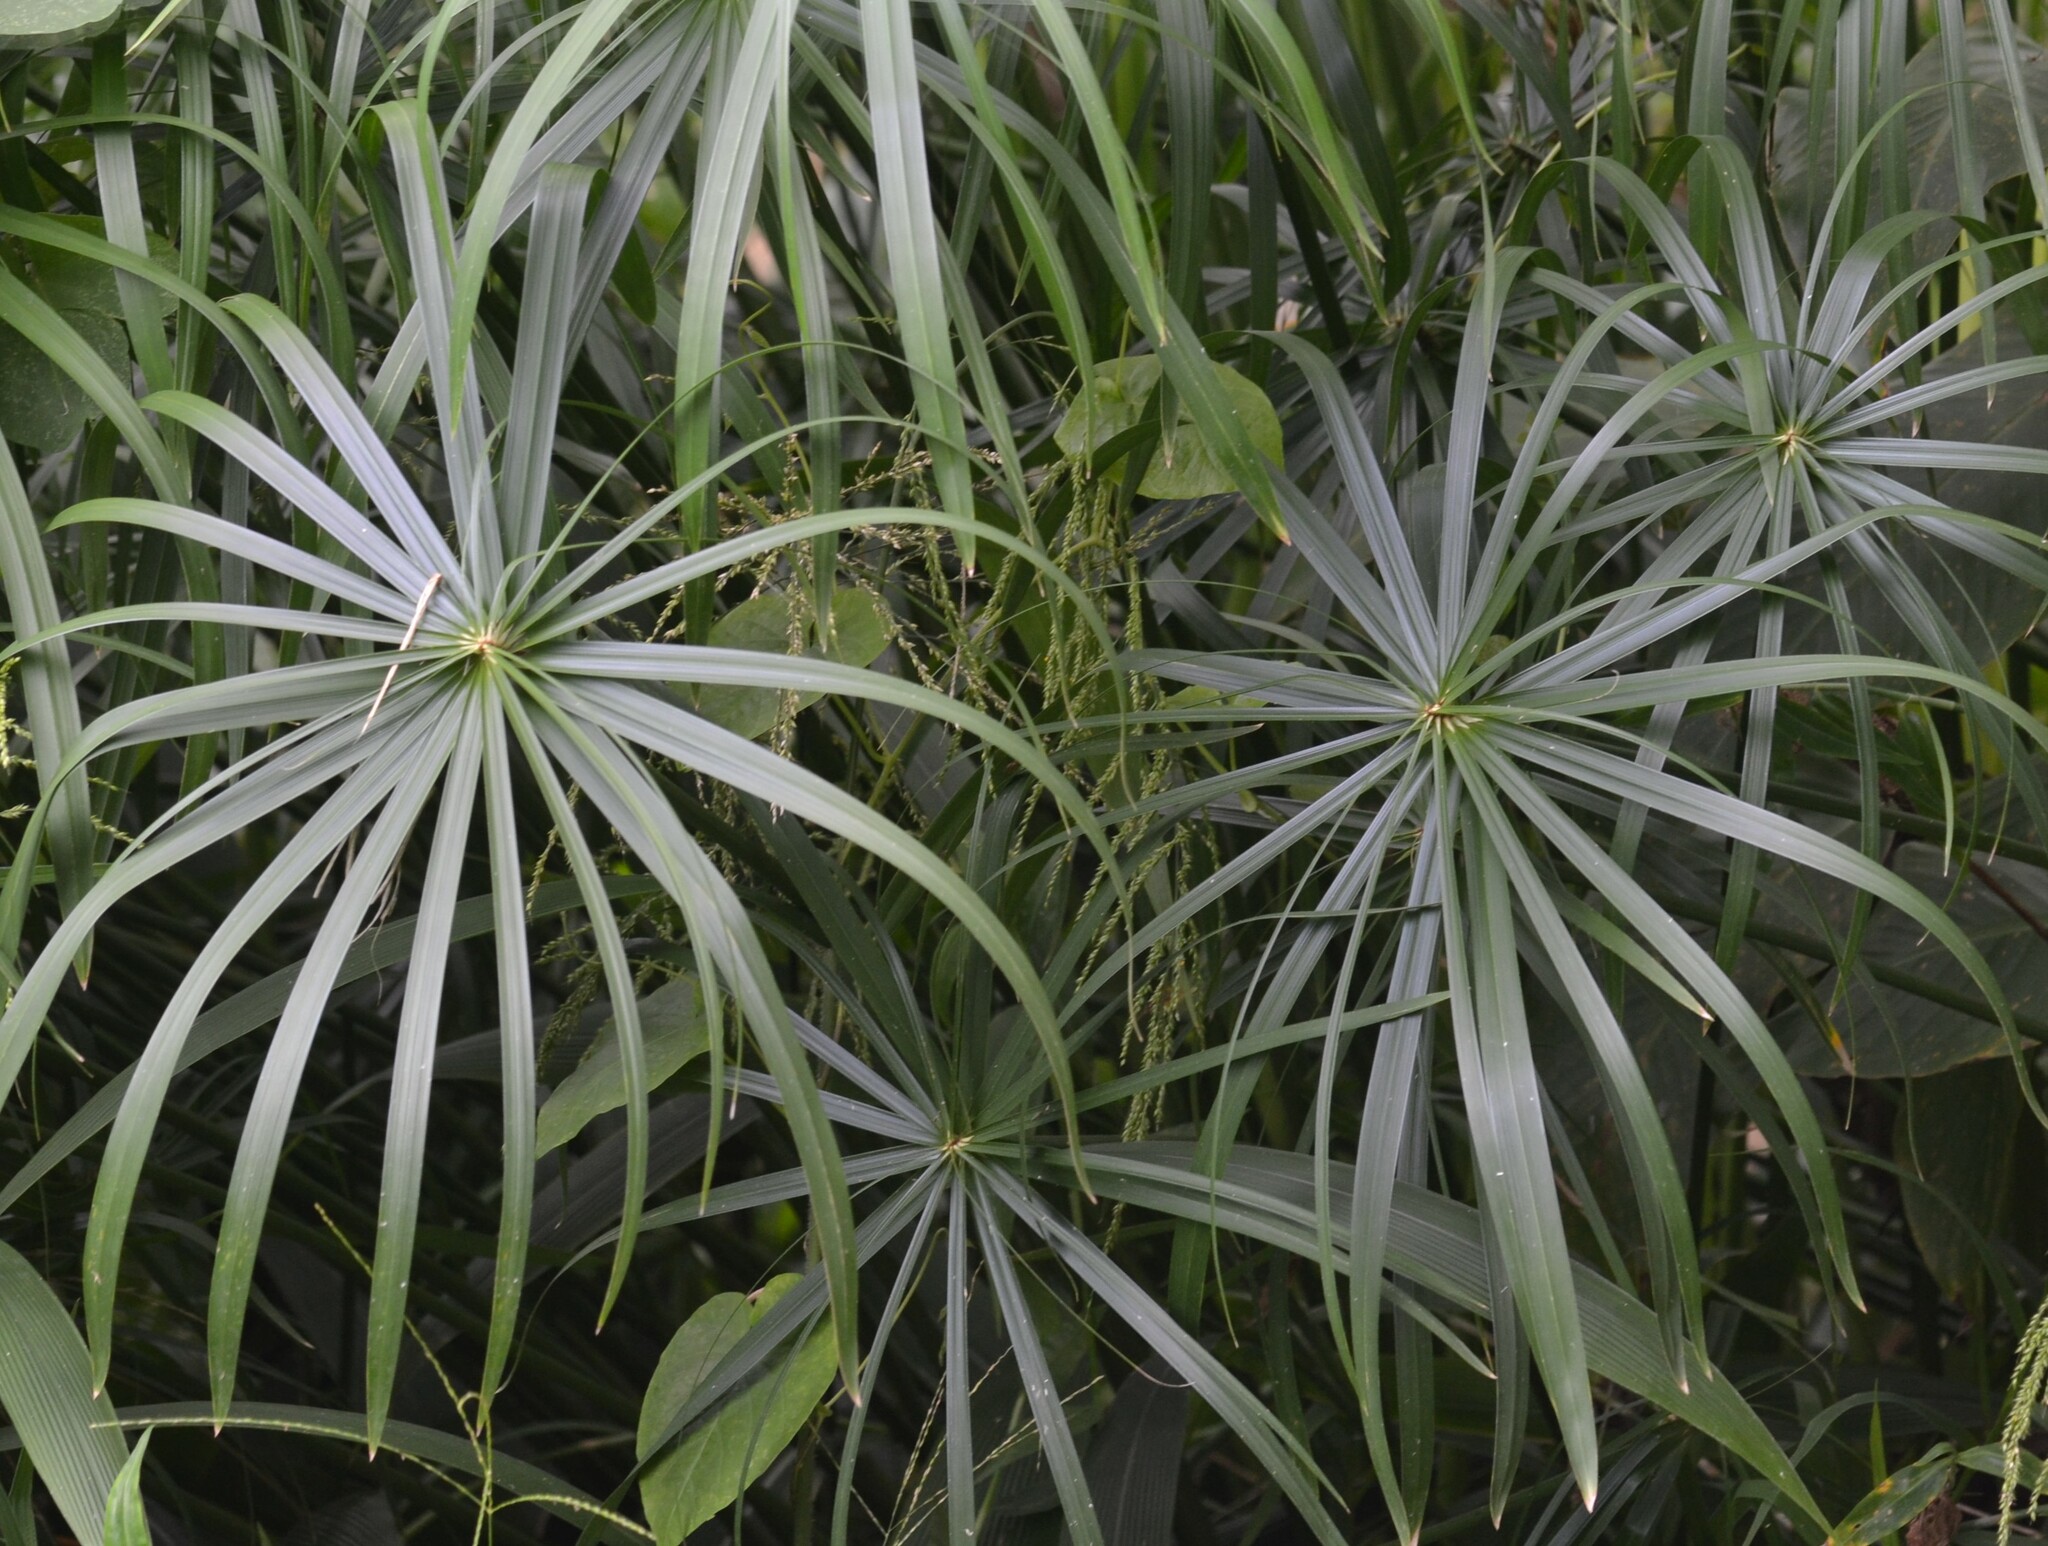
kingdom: Plantae
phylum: Tracheophyta
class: Liliopsida
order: Poales
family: Cyperaceae
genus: Cyperus
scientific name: Cyperus alternifolius
